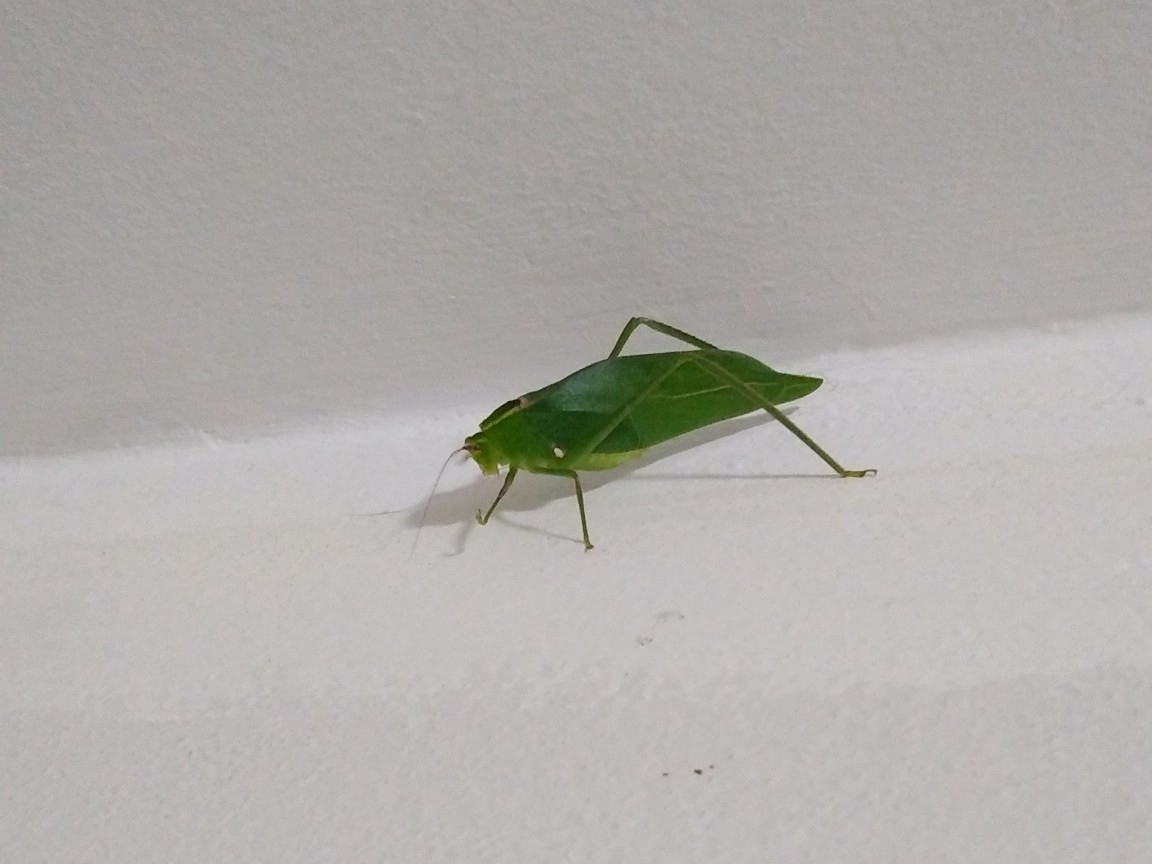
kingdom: Animalia
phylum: Arthropoda
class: Insecta
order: Orthoptera
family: Tettigoniidae
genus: Stilpnochlora
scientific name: Stilpnochlora nanna
